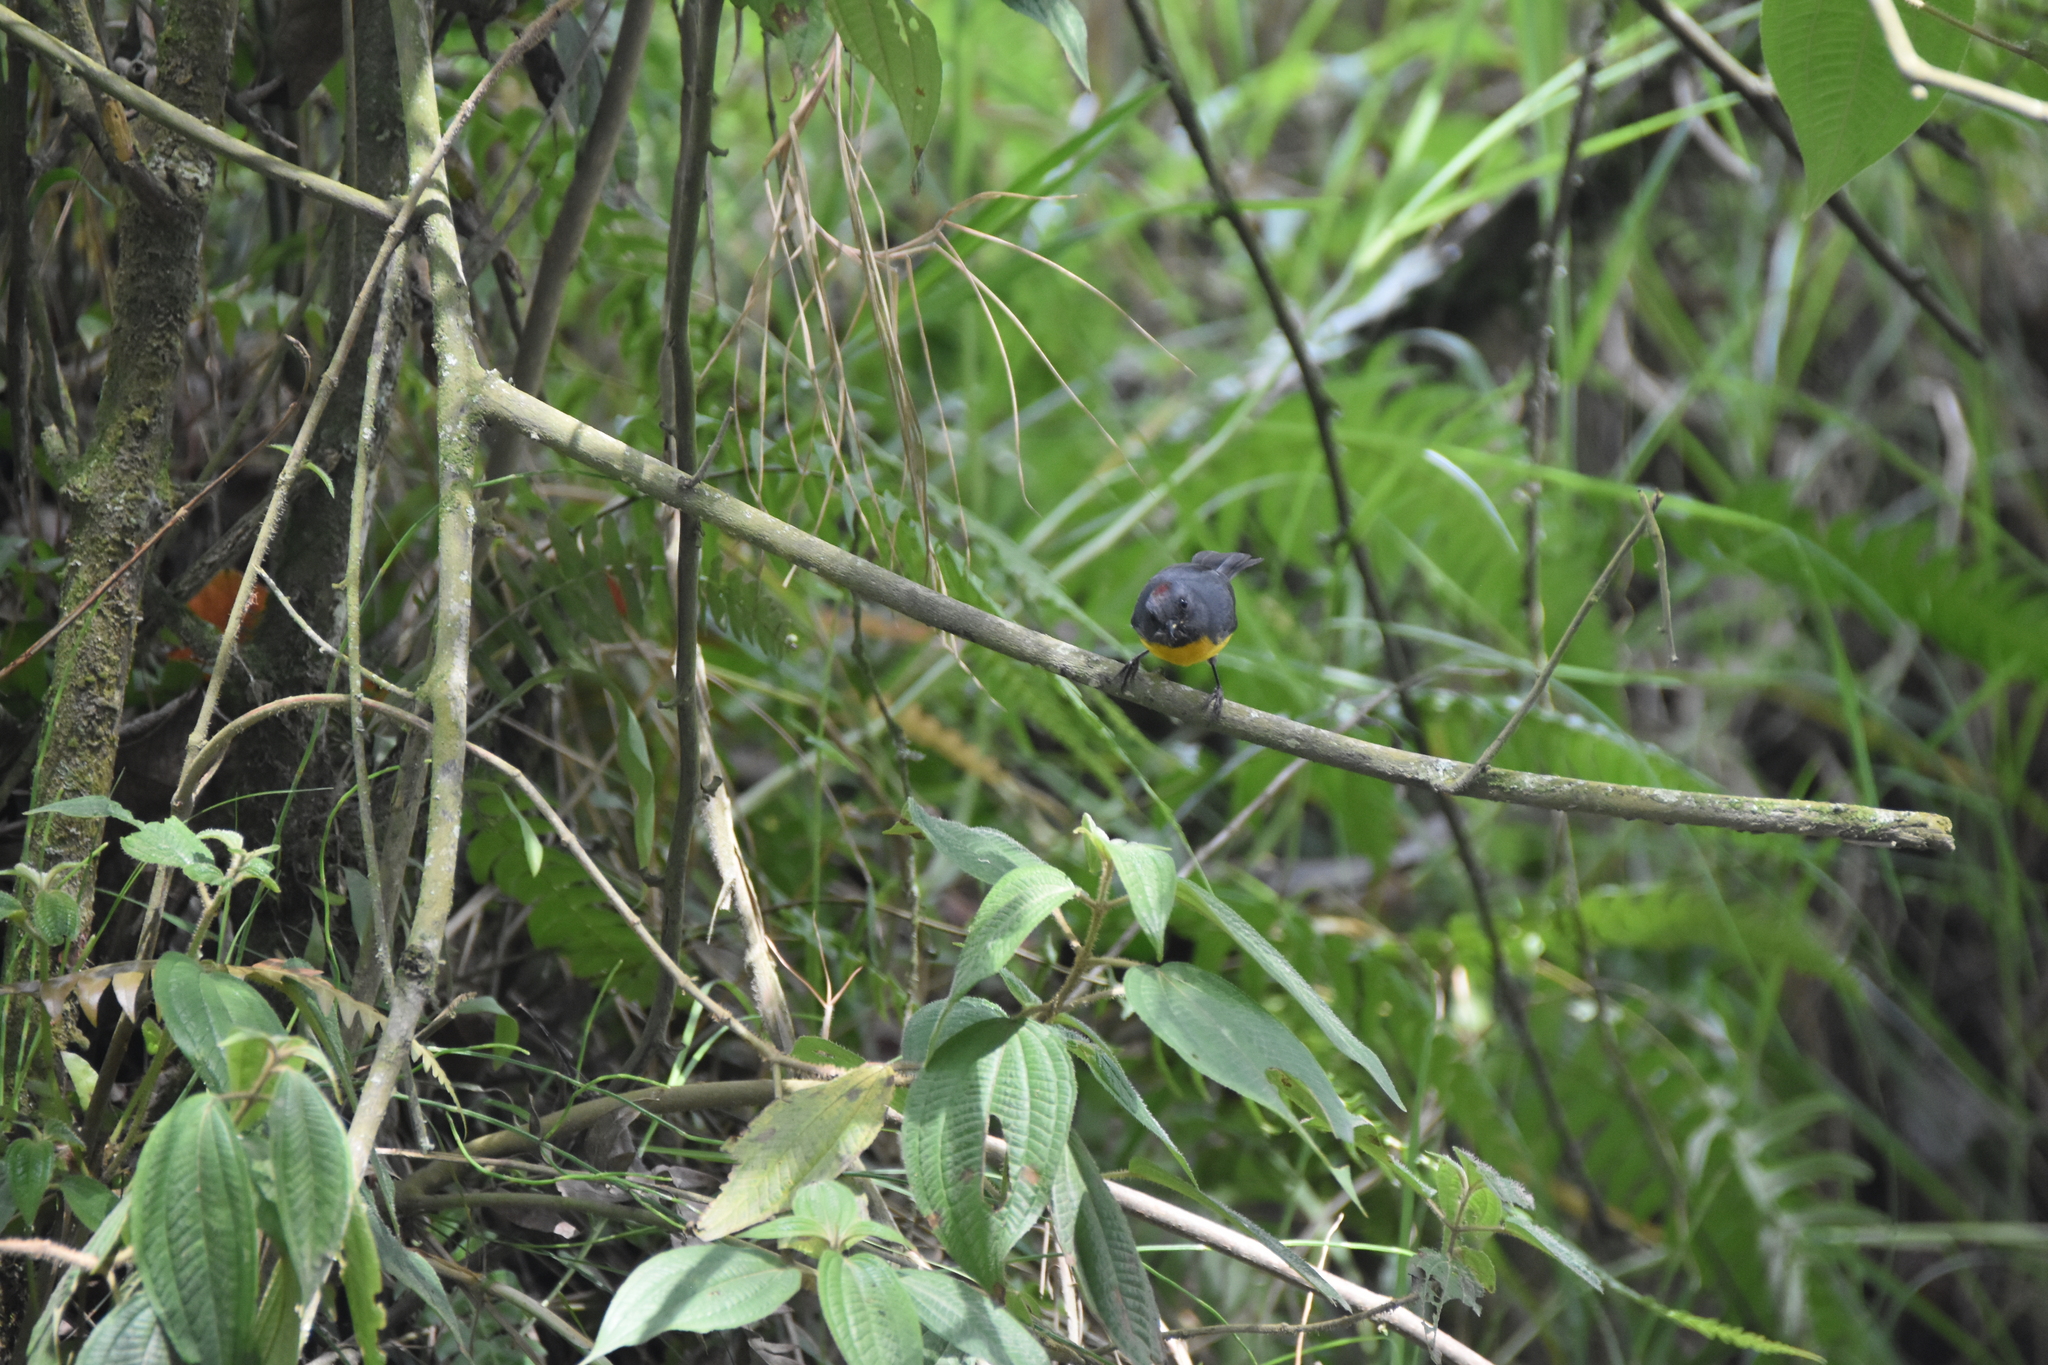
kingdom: Animalia
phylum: Chordata
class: Aves
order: Passeriformes
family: Parulidae
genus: Myioborus
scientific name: Myioborus miniatus
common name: Slate-throated redstart
